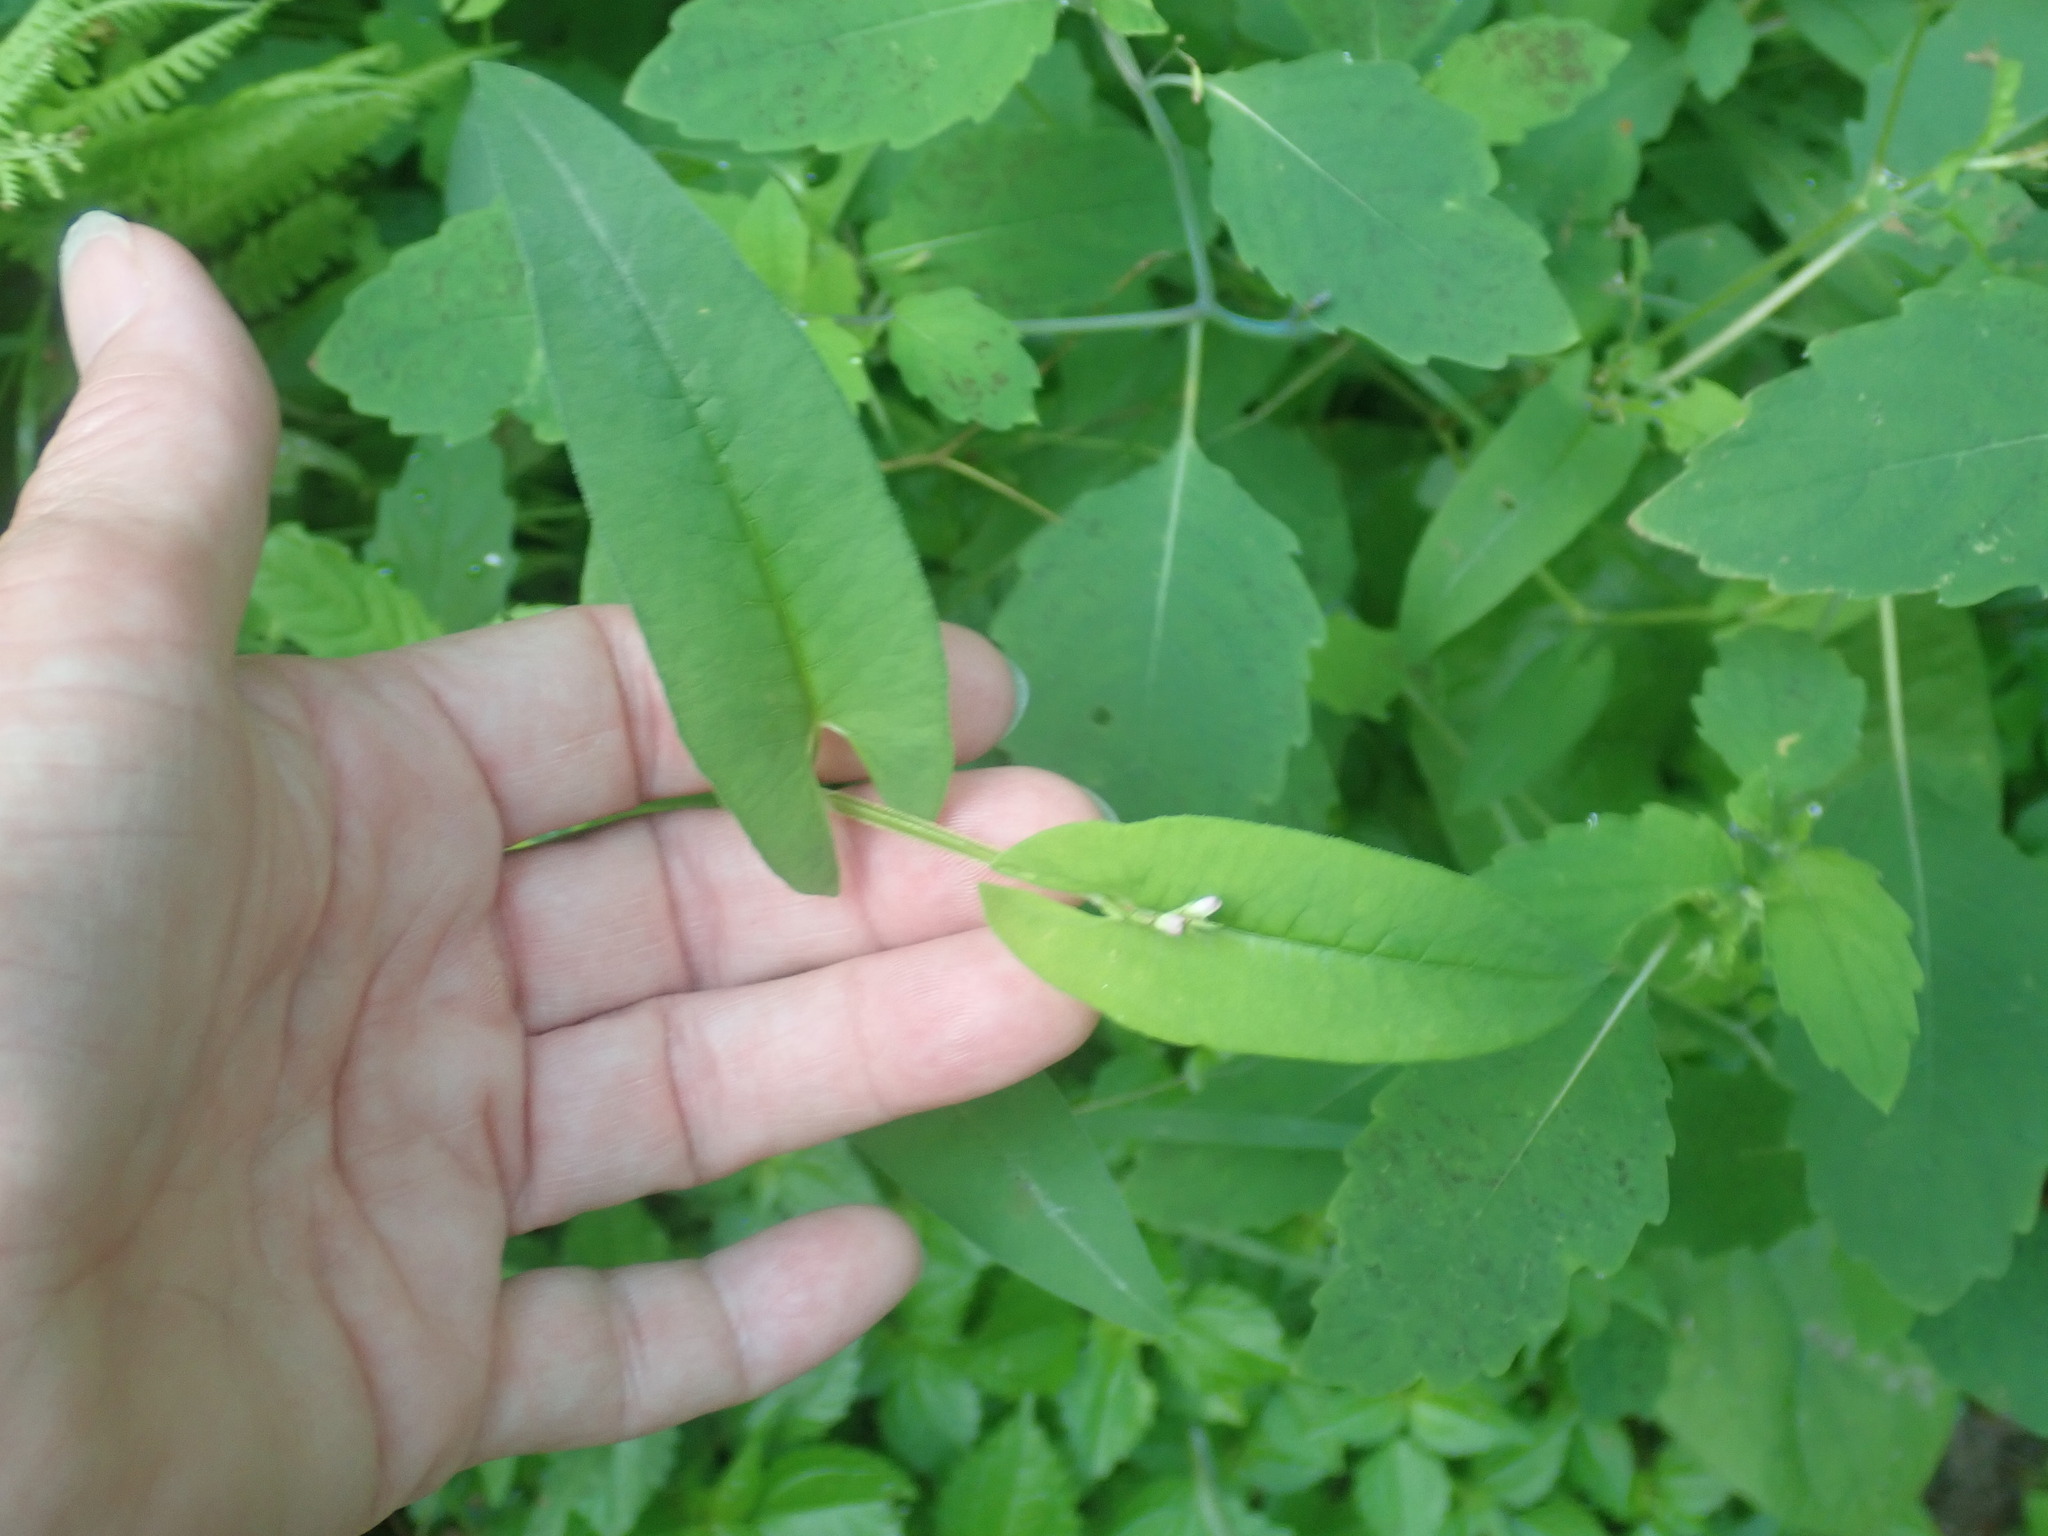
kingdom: Plantae
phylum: Tracheophyta
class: Magnoliopsida
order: Caryophyllales
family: Polygonaceae
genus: Persicaria
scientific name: Persicaria sagittata
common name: American tearthumb
